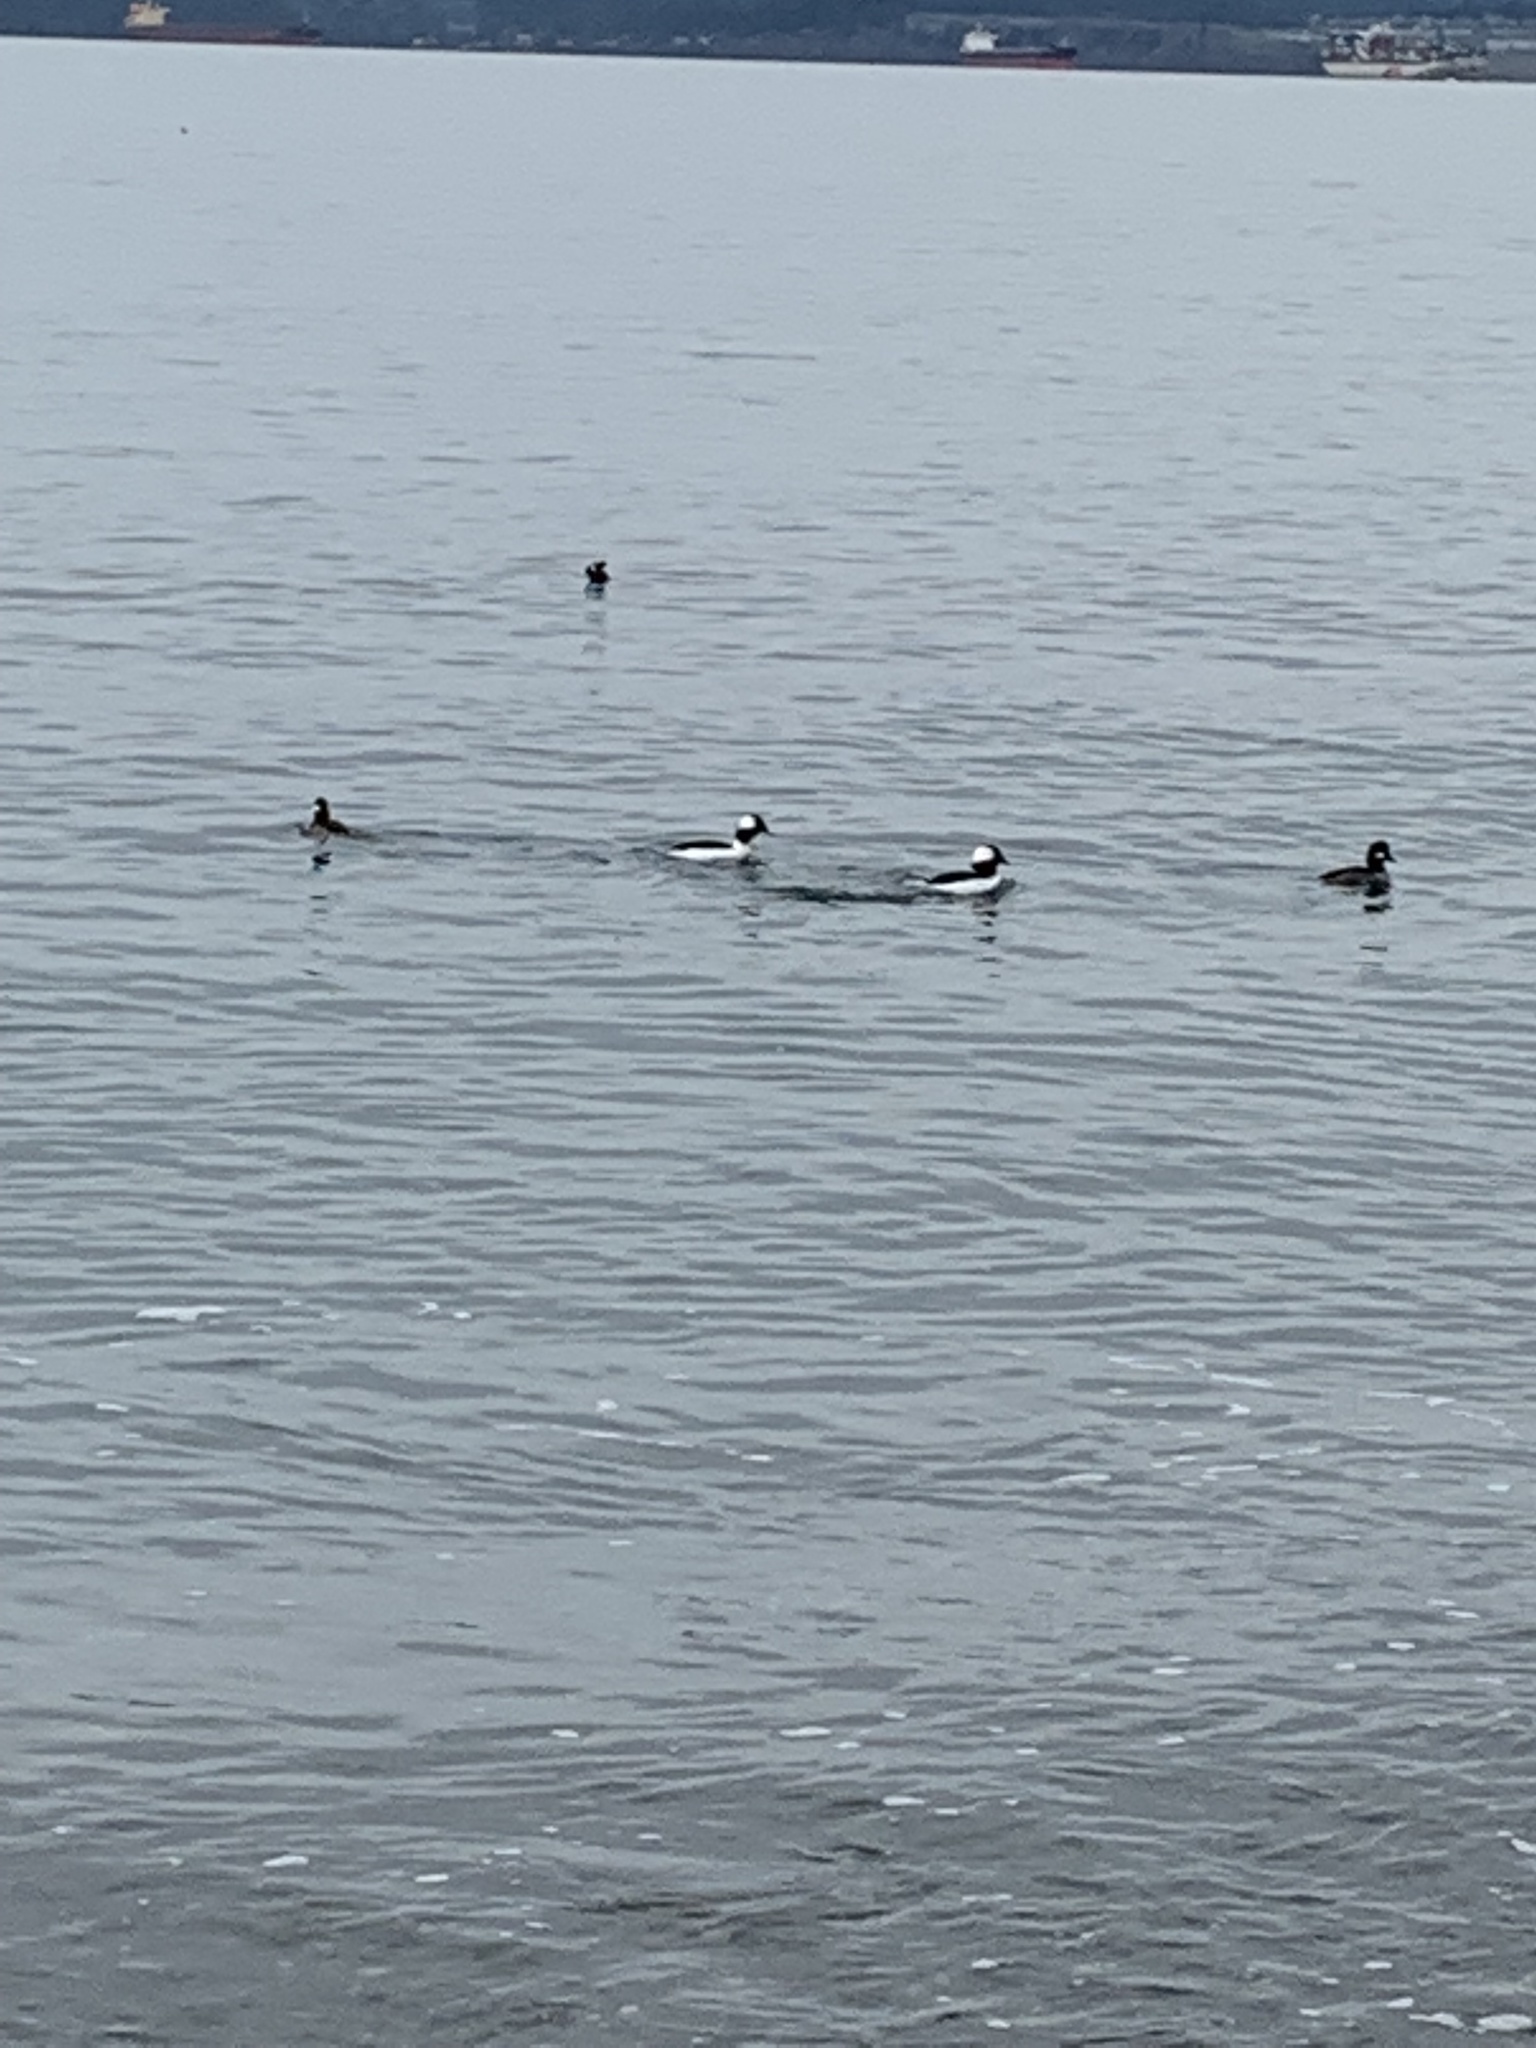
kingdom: Animalia
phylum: Chordata
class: Aves
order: Anseriformes
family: Anatidae
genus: Bucephala
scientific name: Bucephala albeola
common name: Bufflehead
